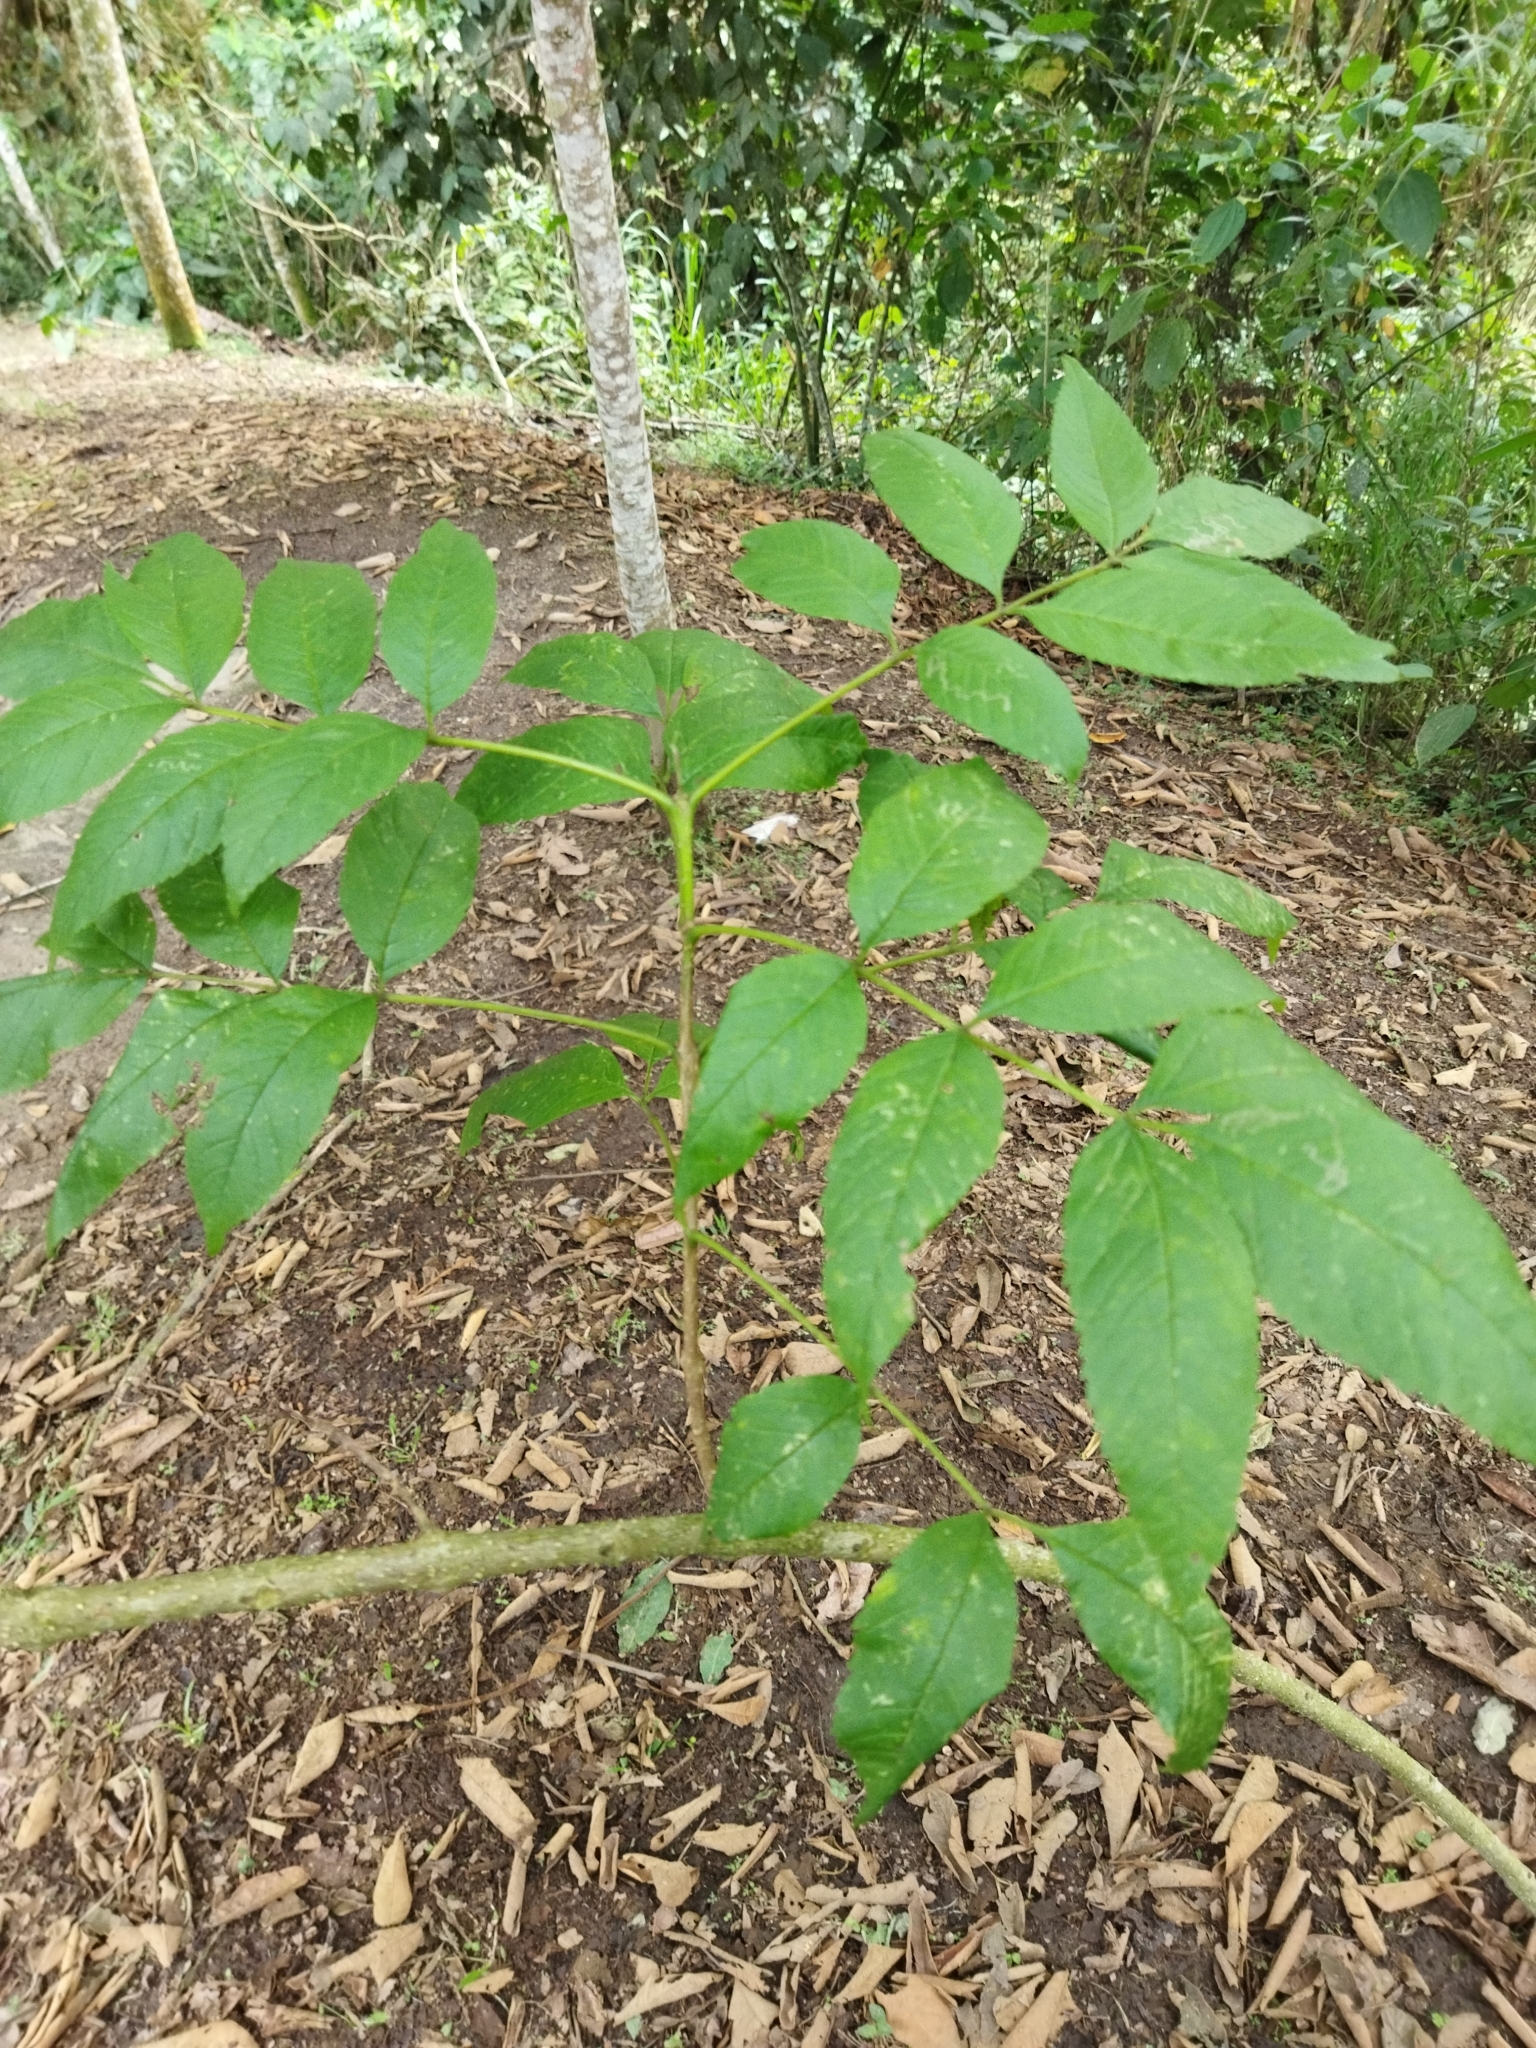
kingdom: Plantae
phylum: Tracheophyta
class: Magnoliopsida
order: Lamiales
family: Bignoniaceae
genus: Tecoma
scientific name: Tecoma stans
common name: Yellow trumpetbush
